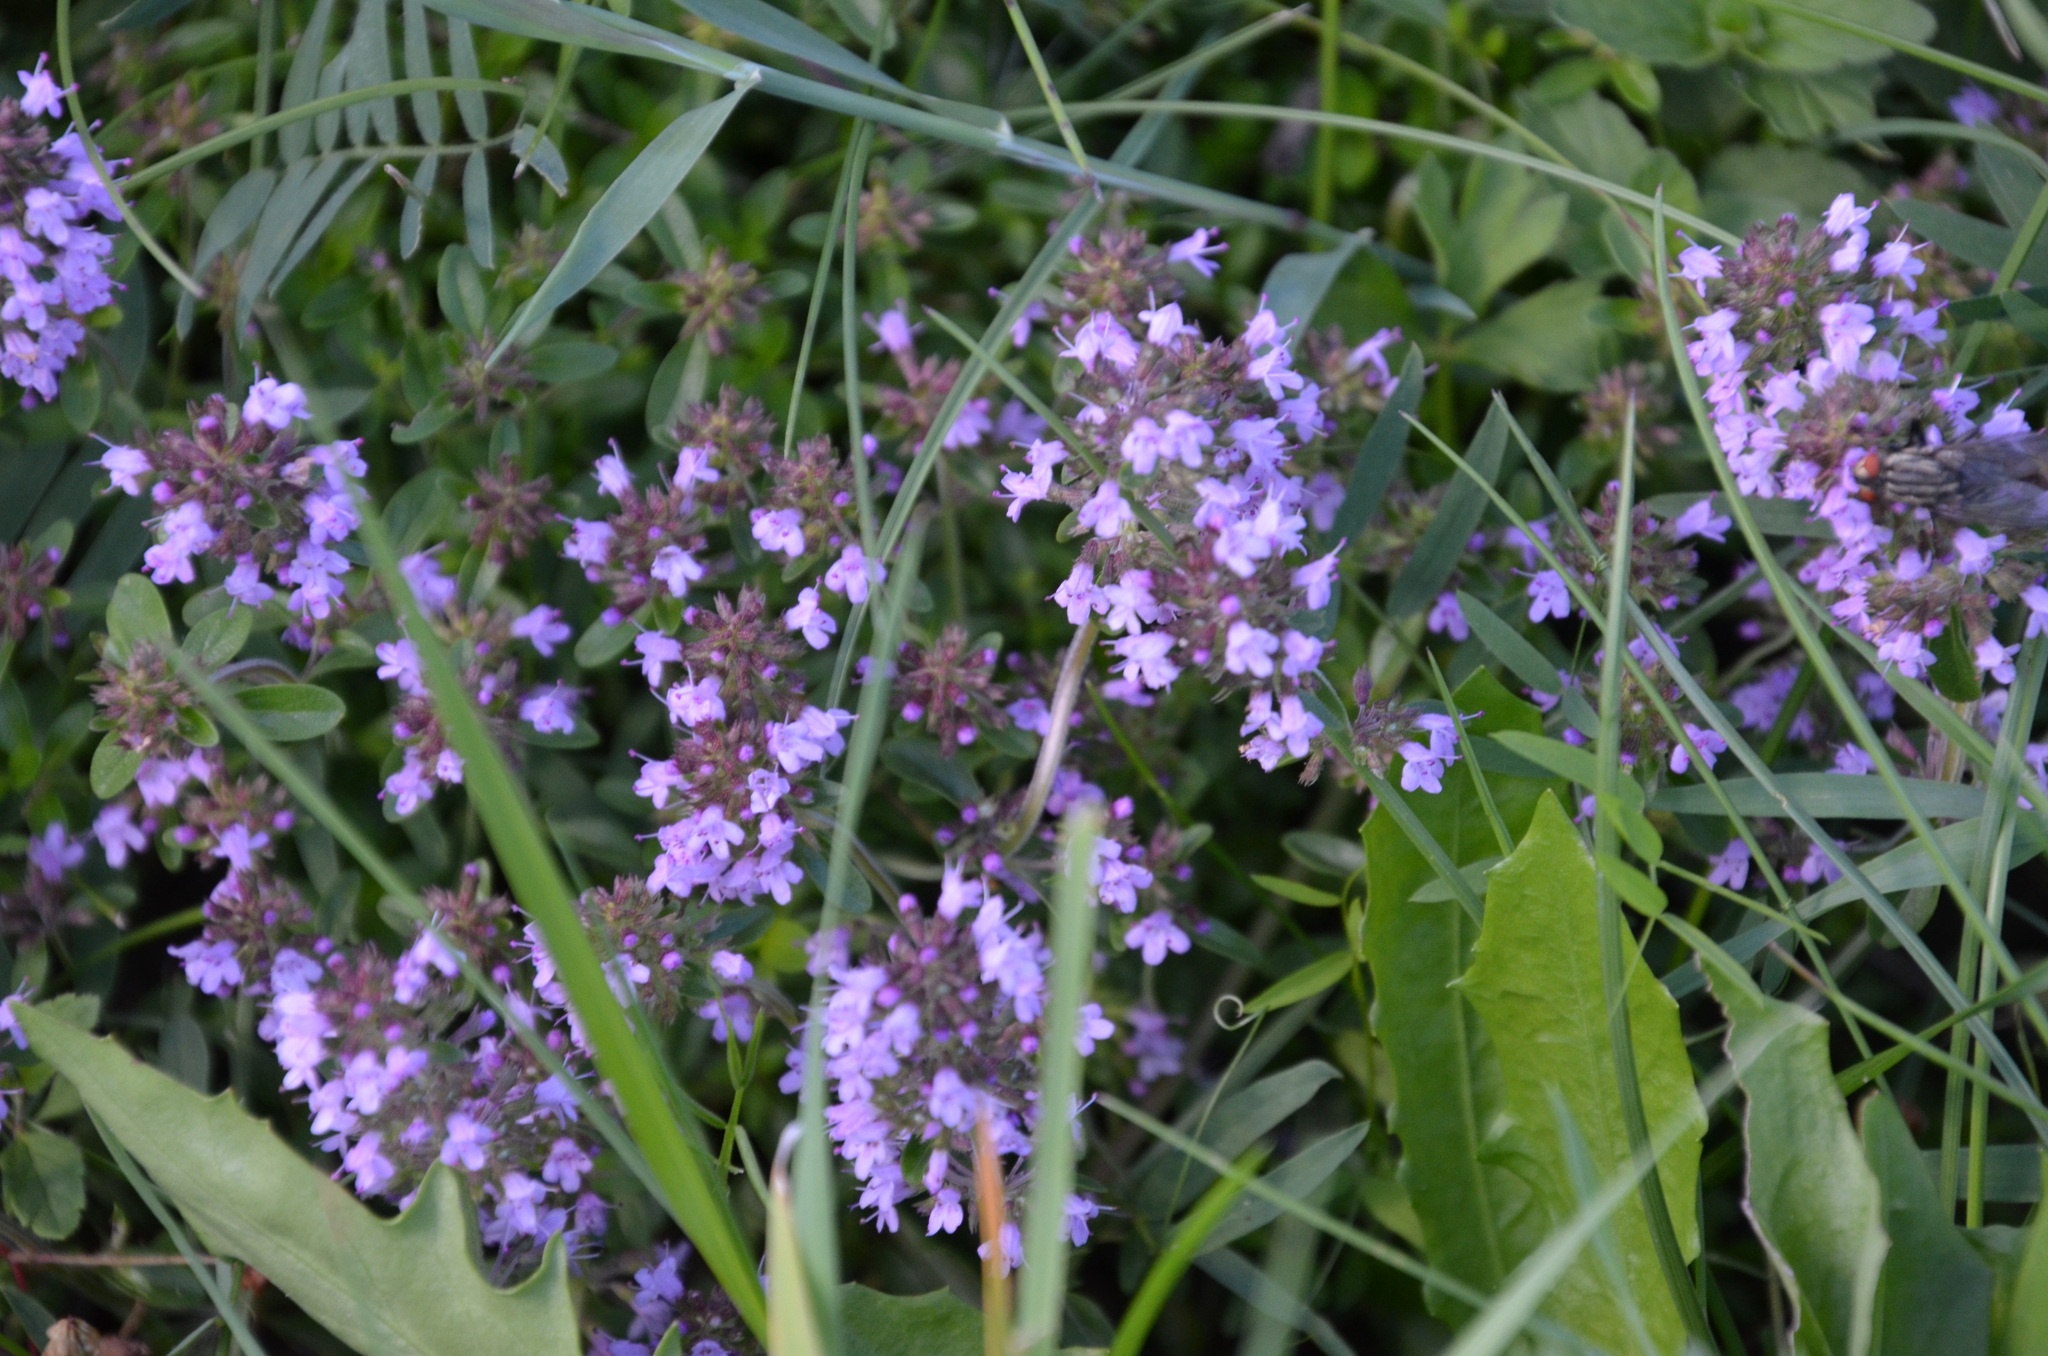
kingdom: Plantae
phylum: Tracheophyta
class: Magnoliopsida
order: Lamiales
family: Lamiaceae
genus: Thymus
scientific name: Thymus pulegioides
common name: Large thyme
